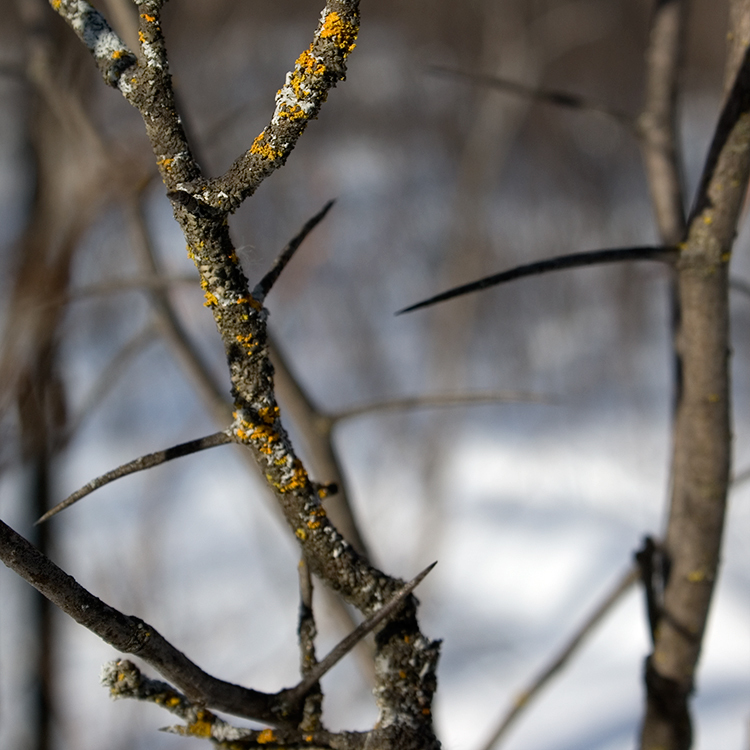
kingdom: Plantae
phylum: Tracheophyta
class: Magnoliopsida
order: Rosales
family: Rosaceae
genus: Crataegus
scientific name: Crataegus
